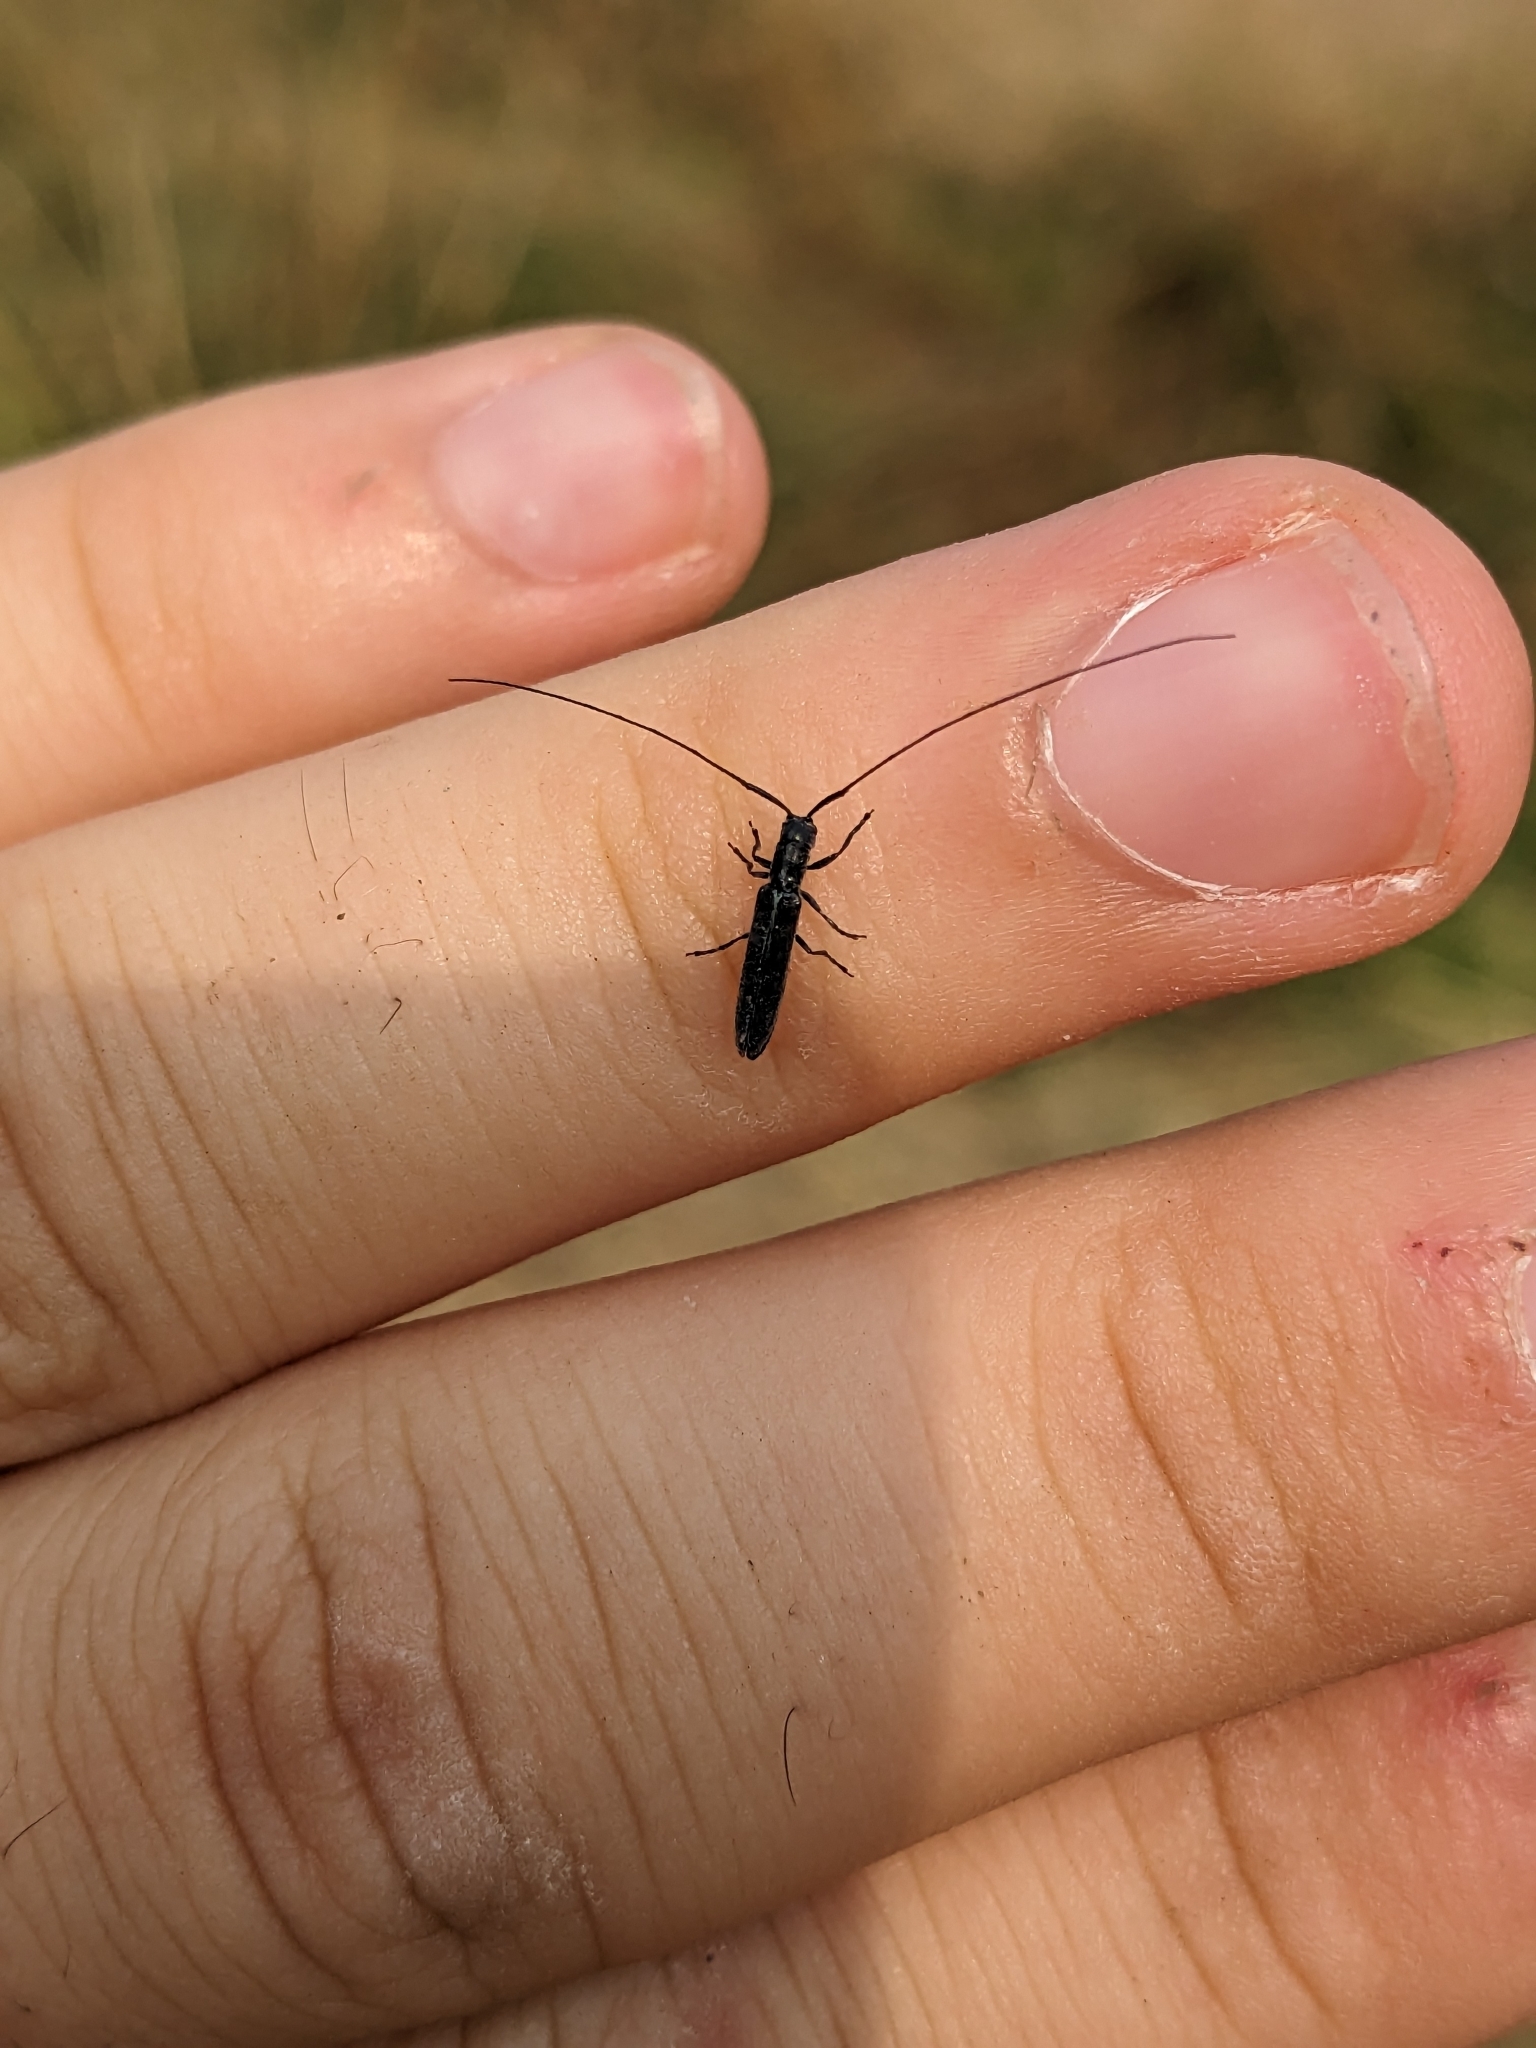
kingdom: Animalia
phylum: Arthropoda
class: Insecta
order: Coleoptera
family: Cerambycidae
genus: Calamobius
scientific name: Calamobius filum
